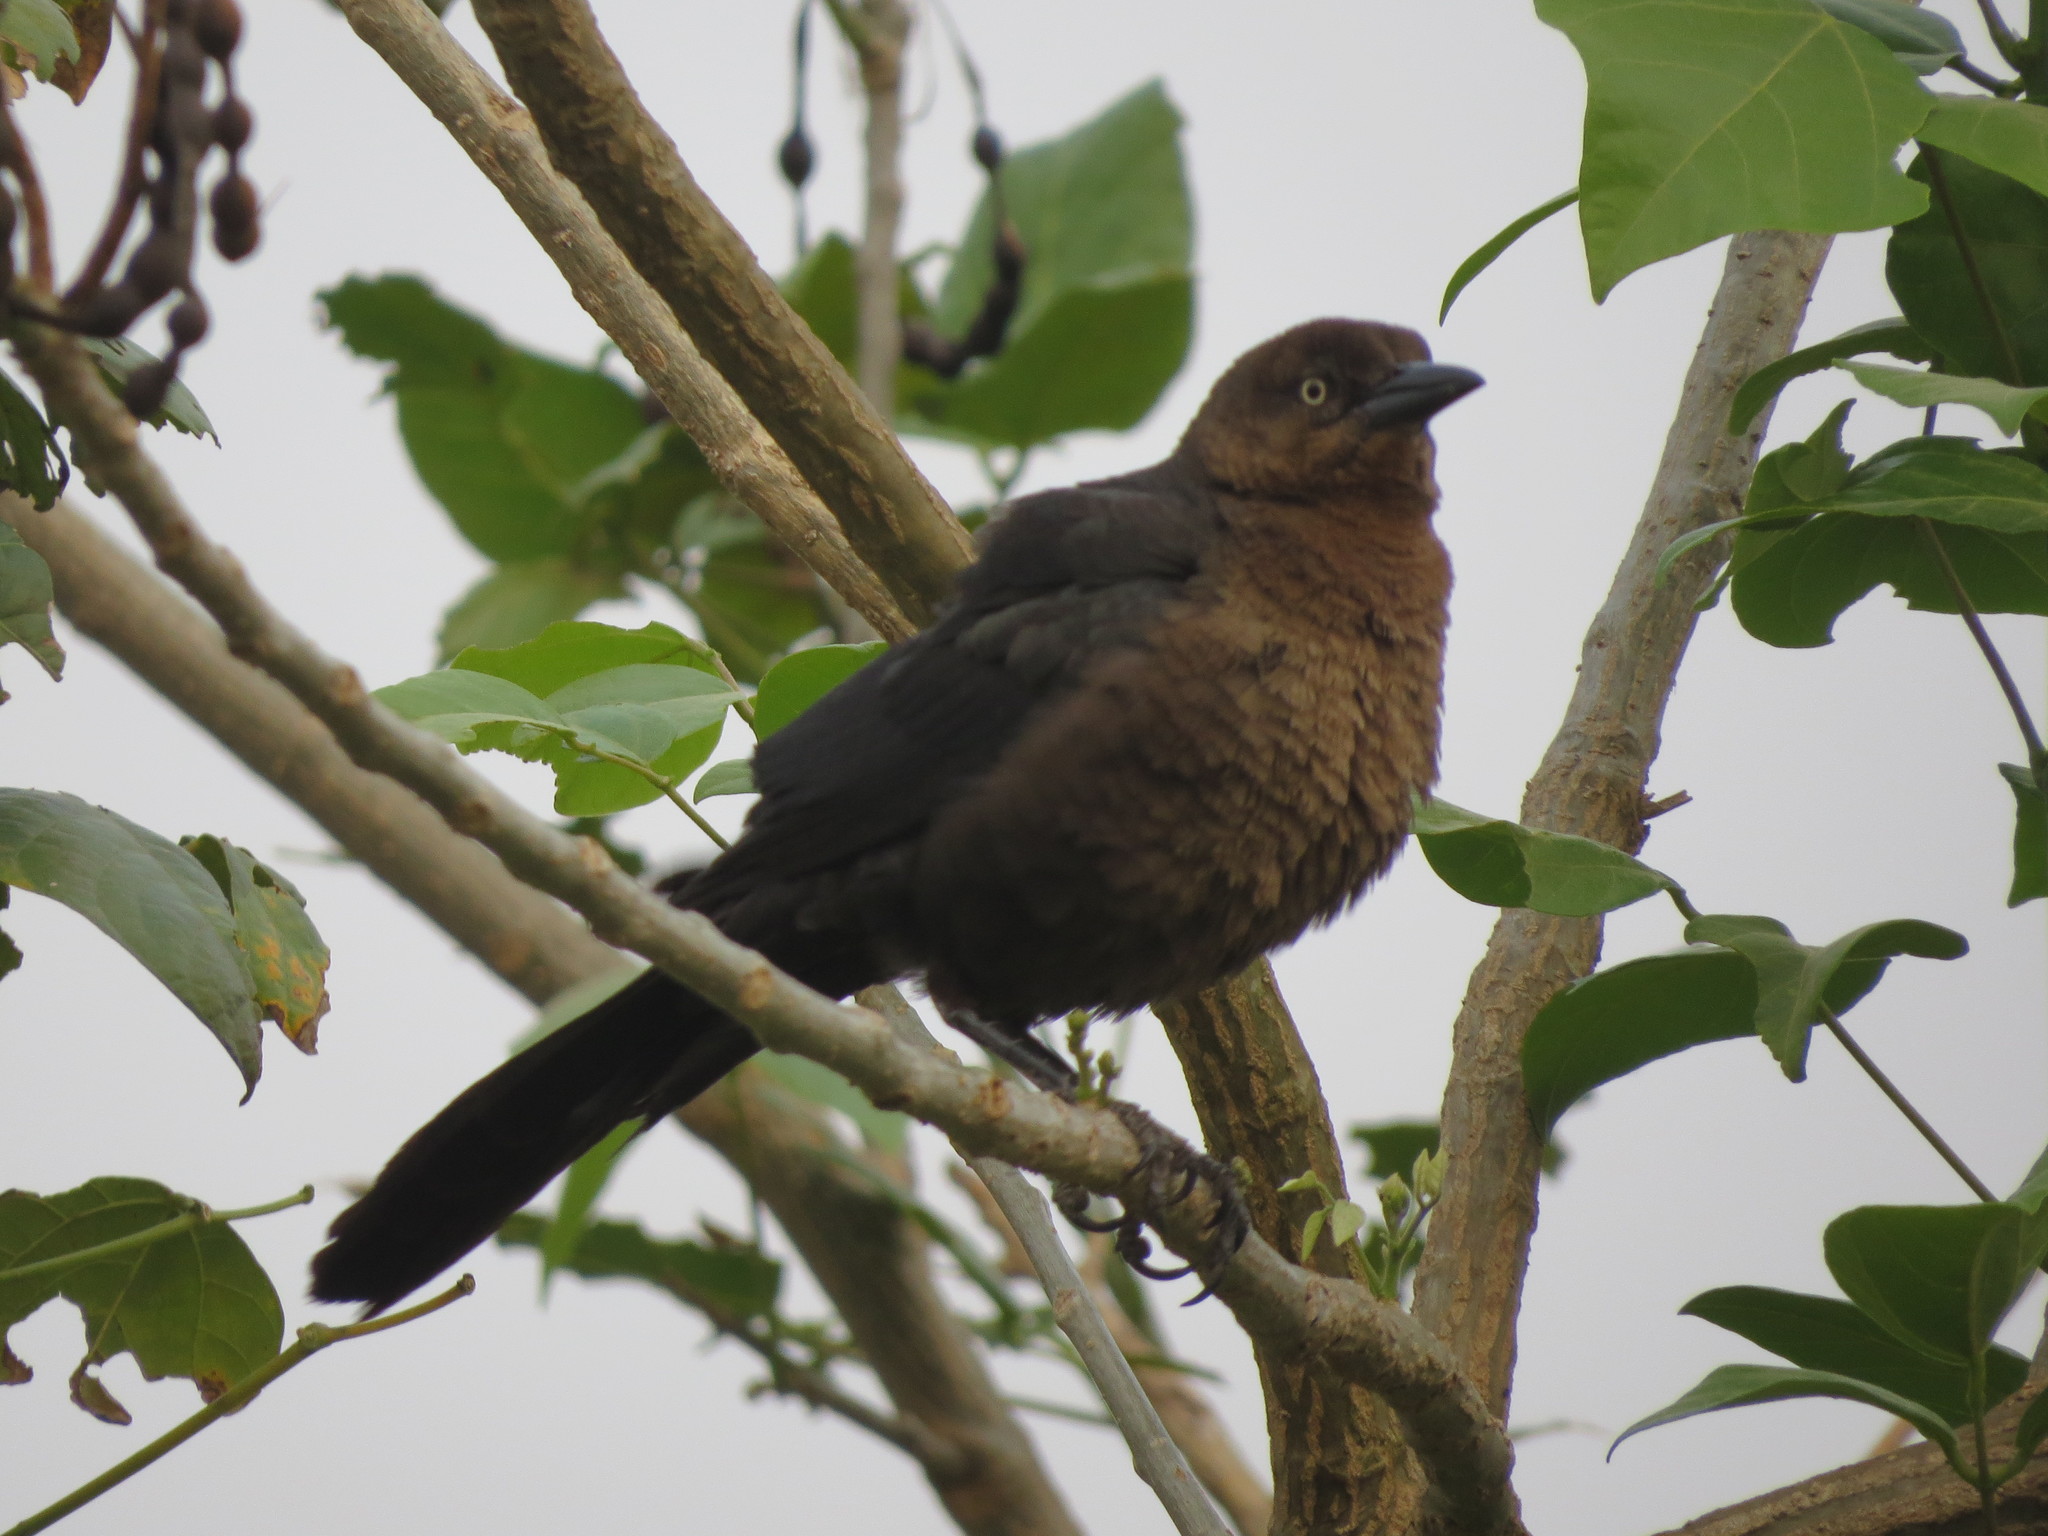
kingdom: Animalia
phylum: Chordata
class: Aves
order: Passeriformes
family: Icteridae
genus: Quiscalus
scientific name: Quiscalus mexicanus
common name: Great-tailed grackle
